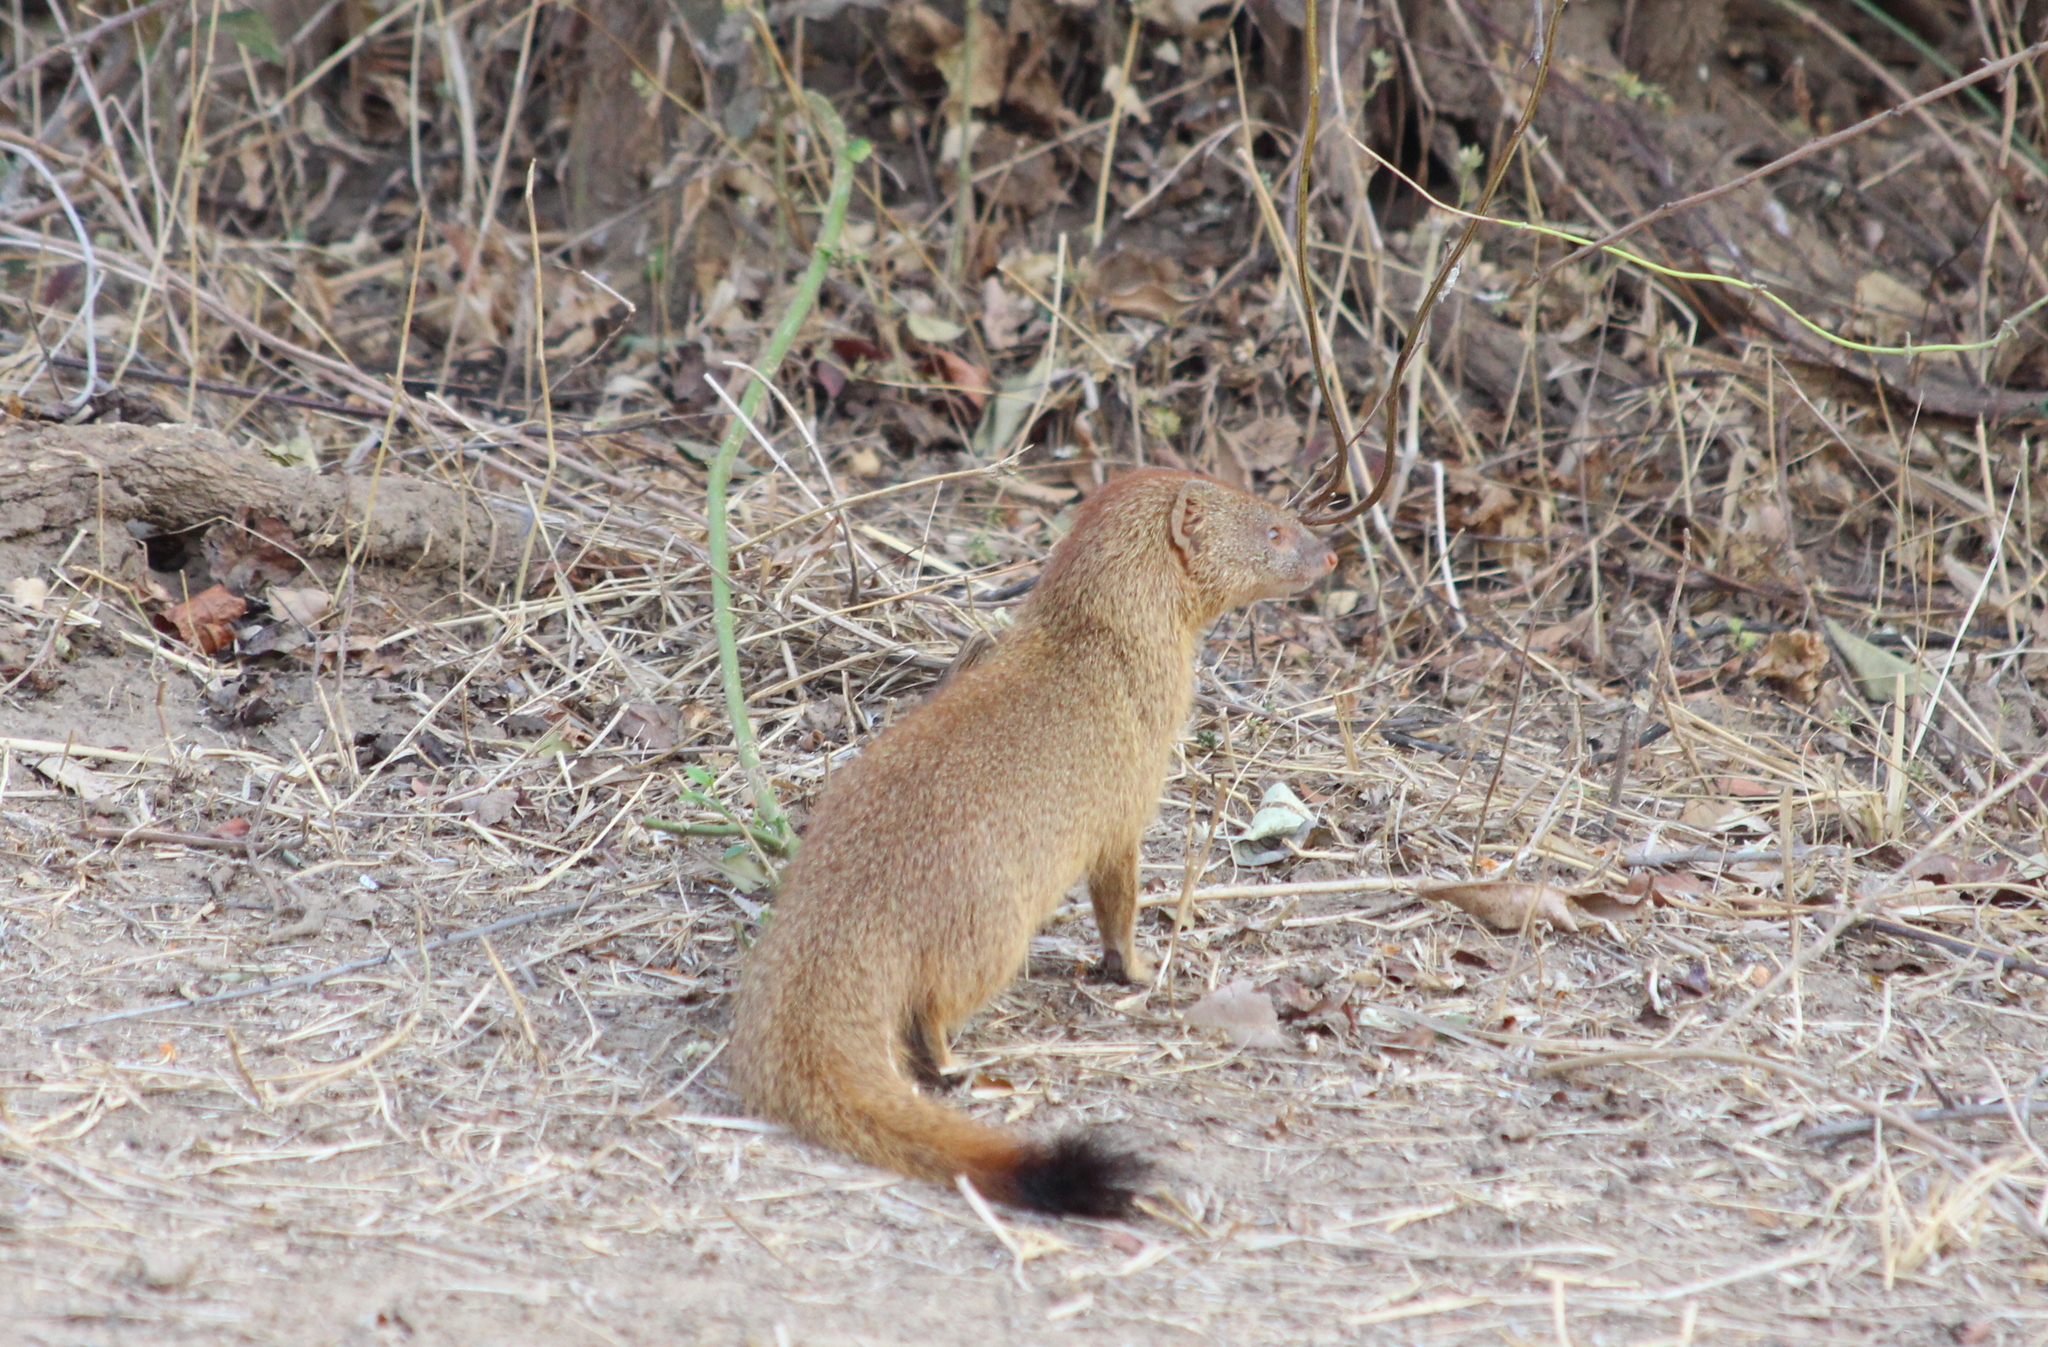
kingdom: Animalia
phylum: Chordata
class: Mammalia
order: Carnivora
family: Herpestidae
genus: Galerella
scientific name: Galerella sanguinea
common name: Slender mongoose
